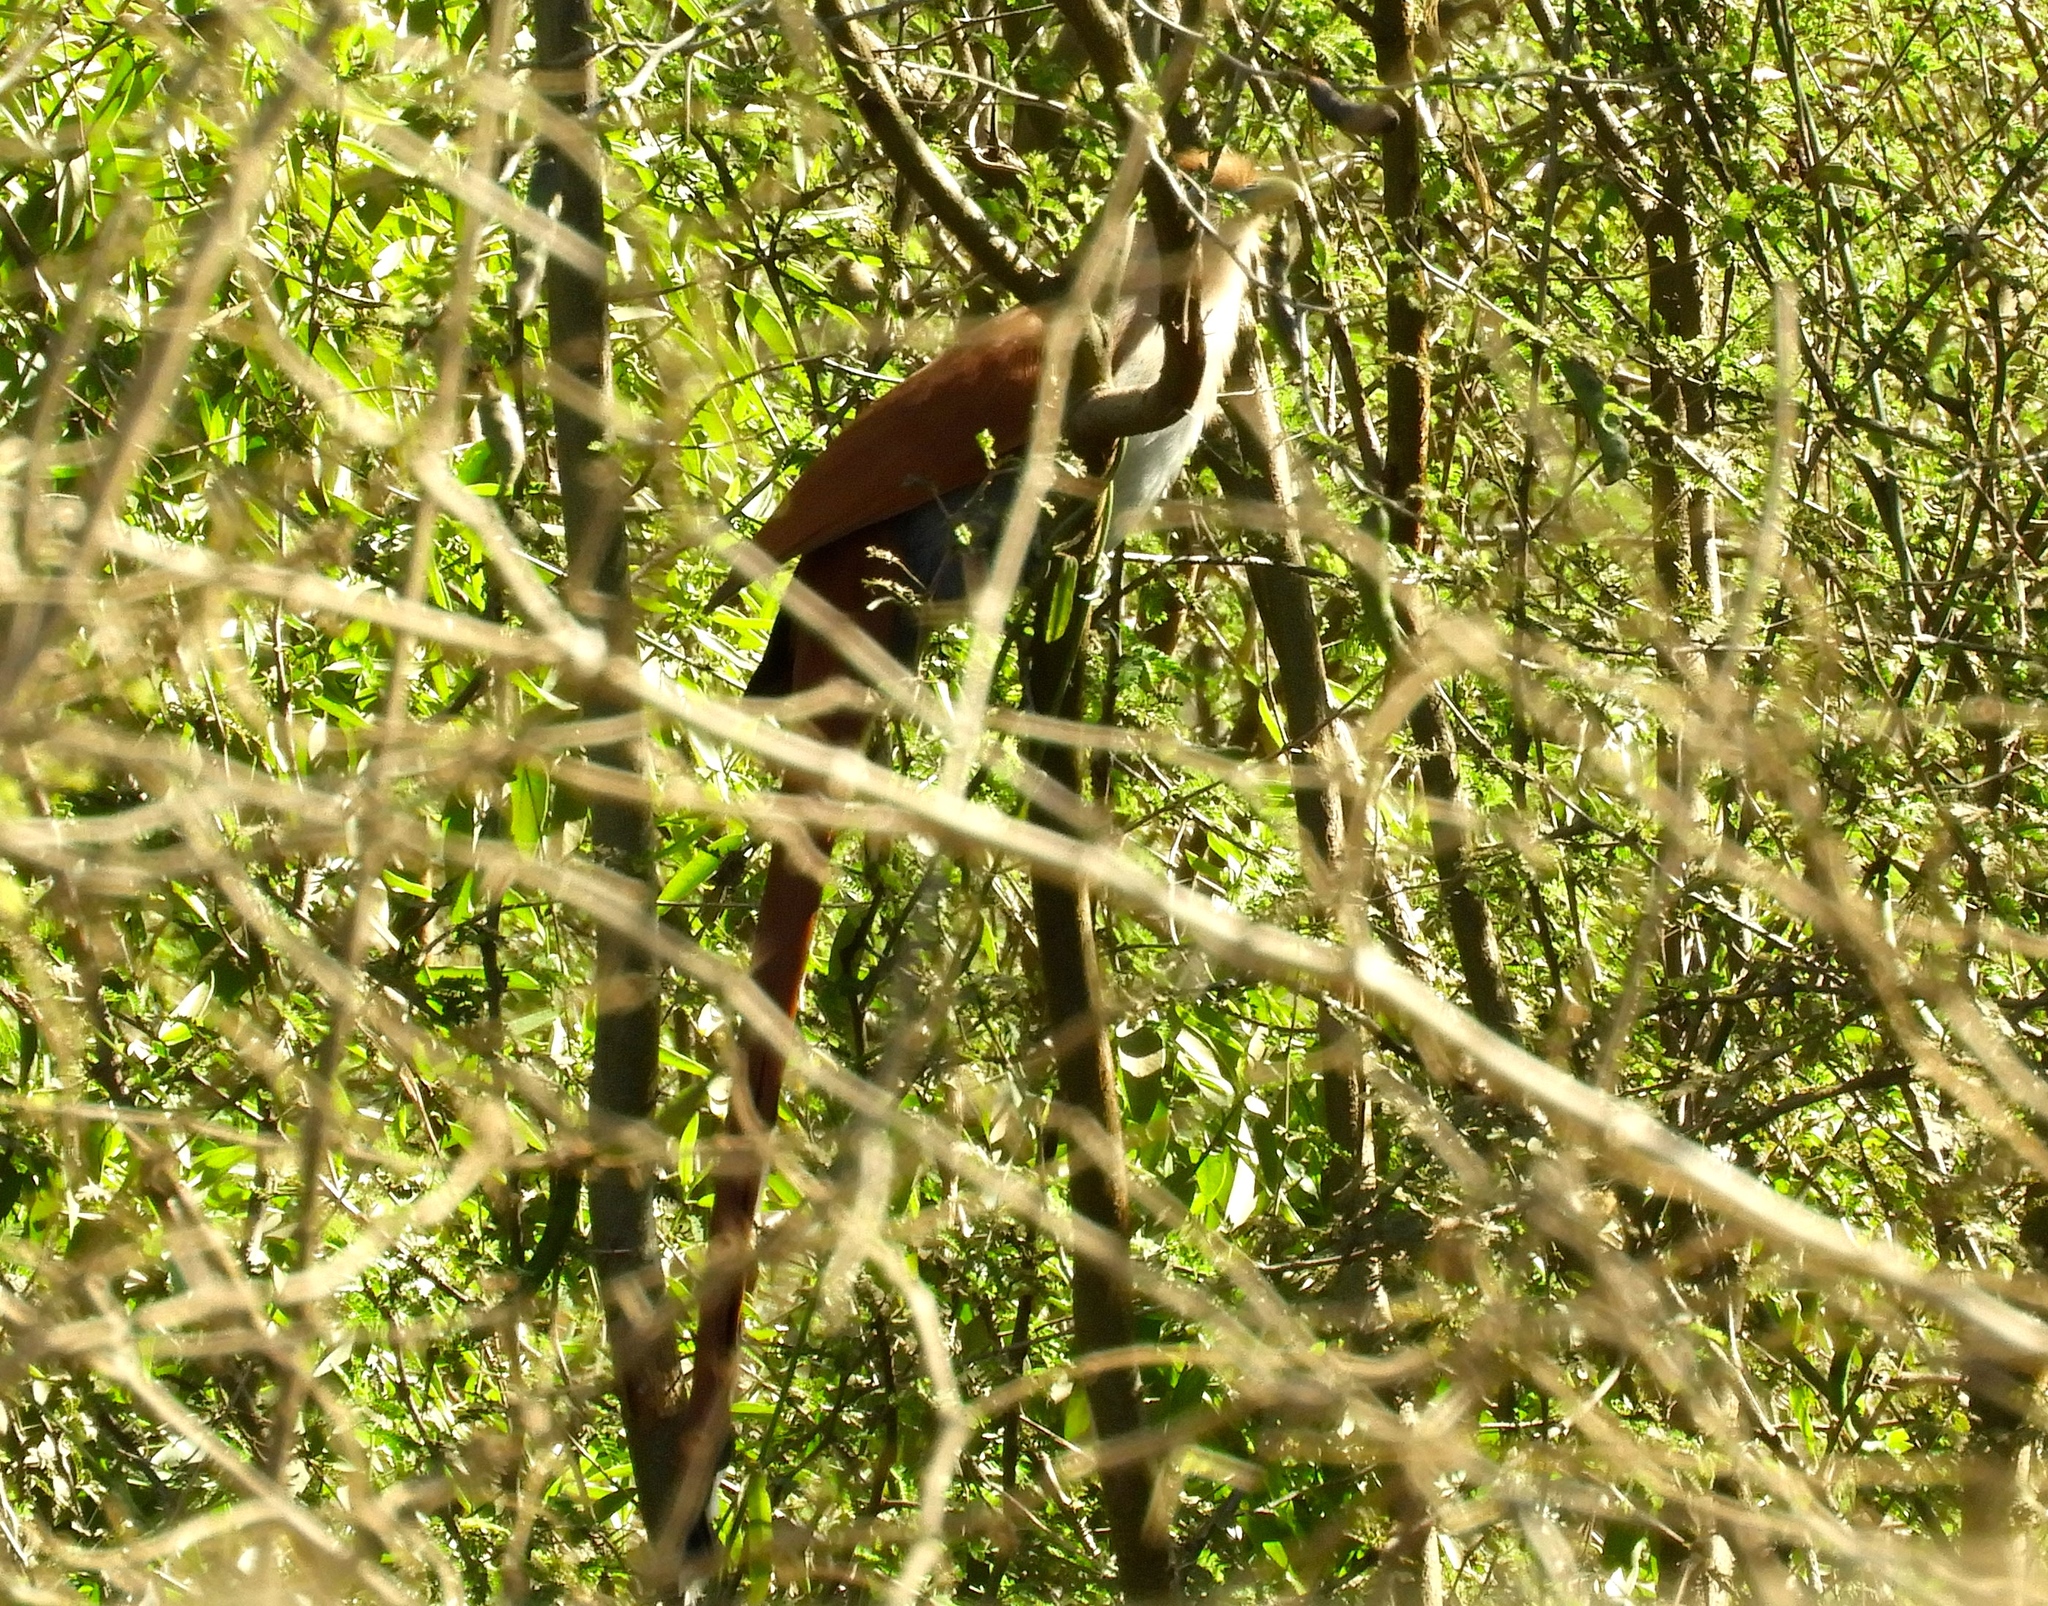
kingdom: Animalia
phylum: Chordata
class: Aves
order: Cuculiformes
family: Cuculidae
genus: Piaya
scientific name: Piaya cayana
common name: Squirrel cuckoo
